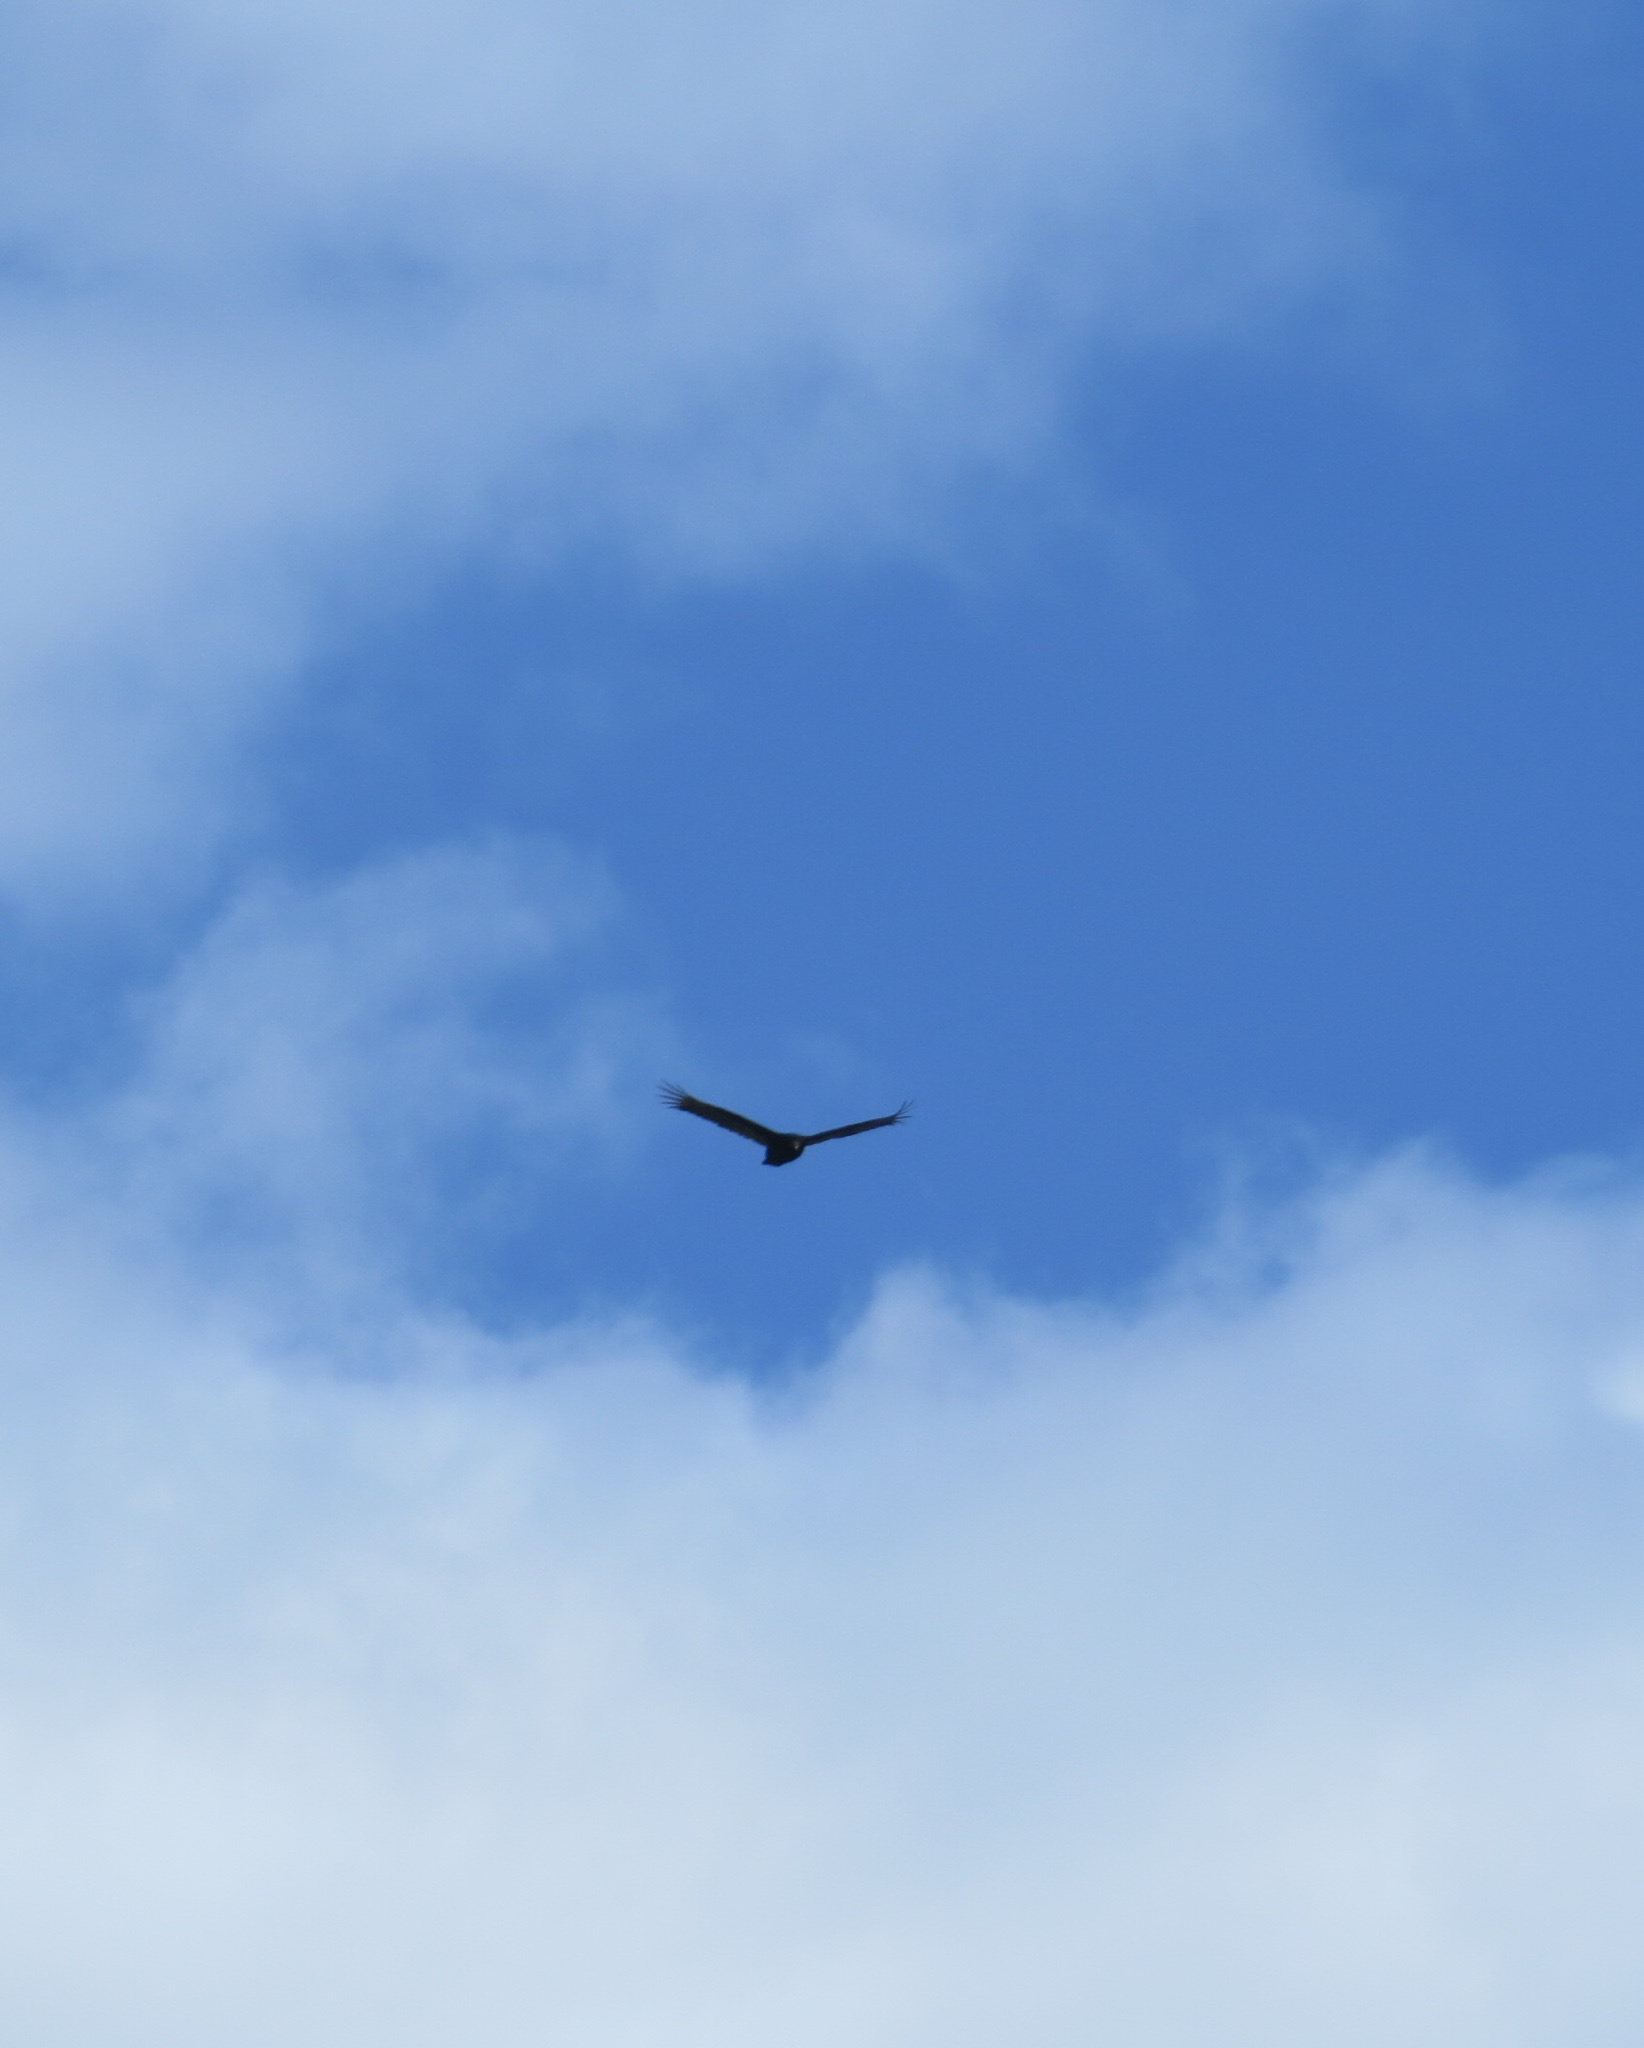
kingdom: Animalia
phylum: Chordata
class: Aves
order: Accipitriformes
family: Cathartidae
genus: Cathartes
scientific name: Cathartes aura
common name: Turkey vulture
